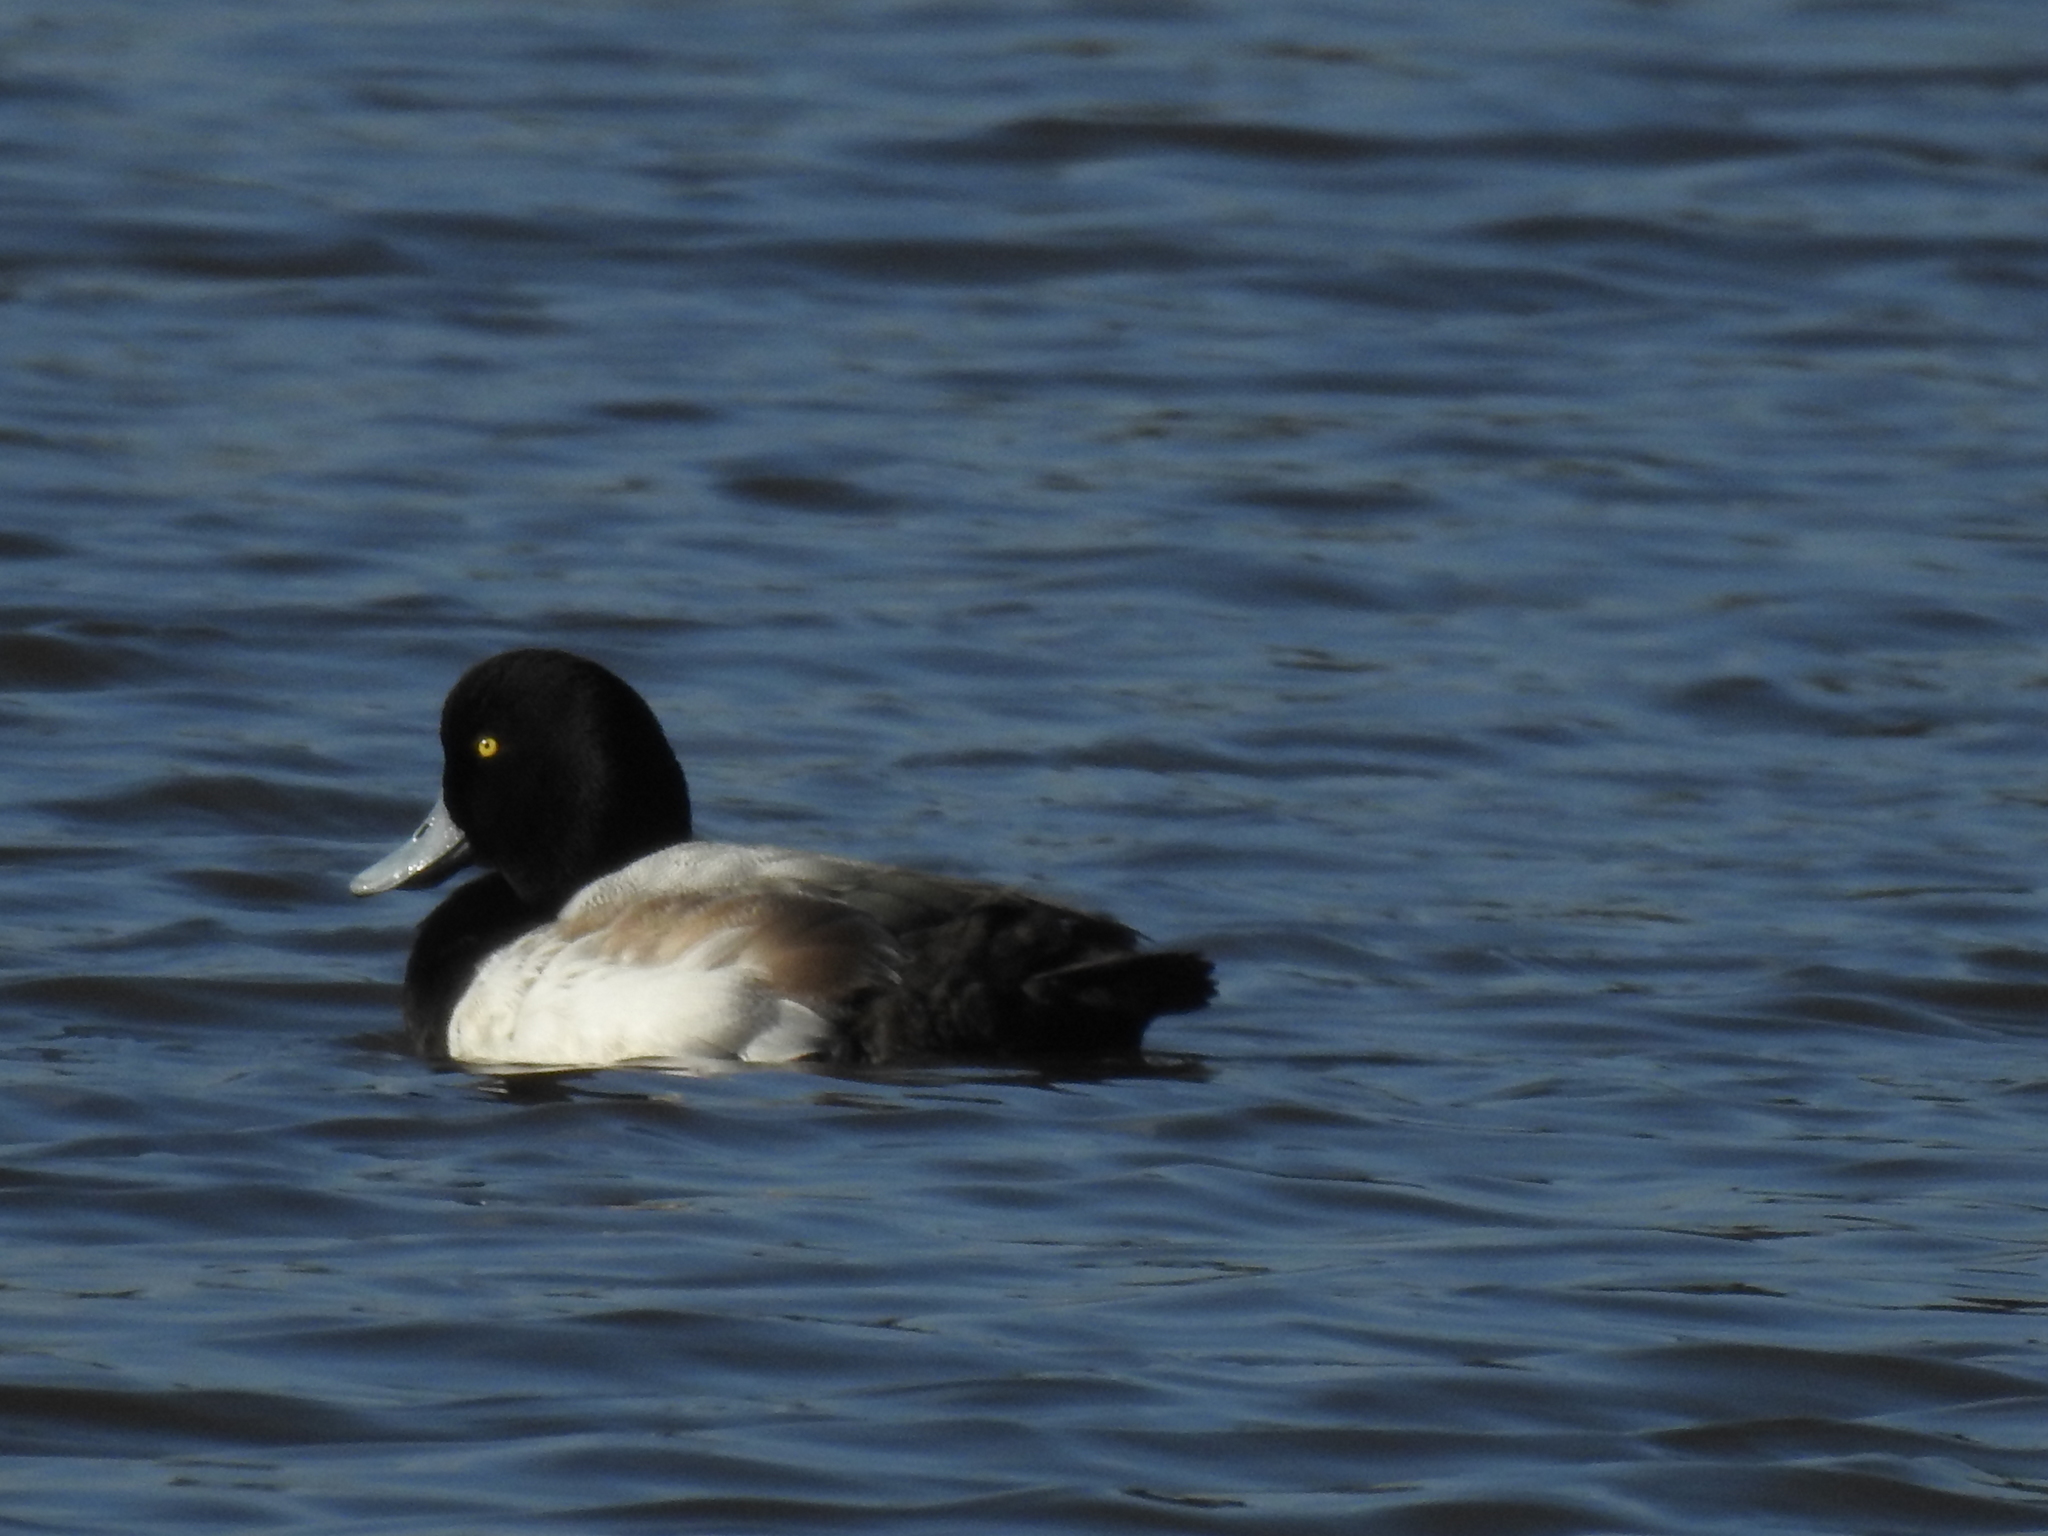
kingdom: Animalia
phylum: Chordata
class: Aves
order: Anseriformes
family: Anatidae
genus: Aythya
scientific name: Aythya marila
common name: Greater scaup
